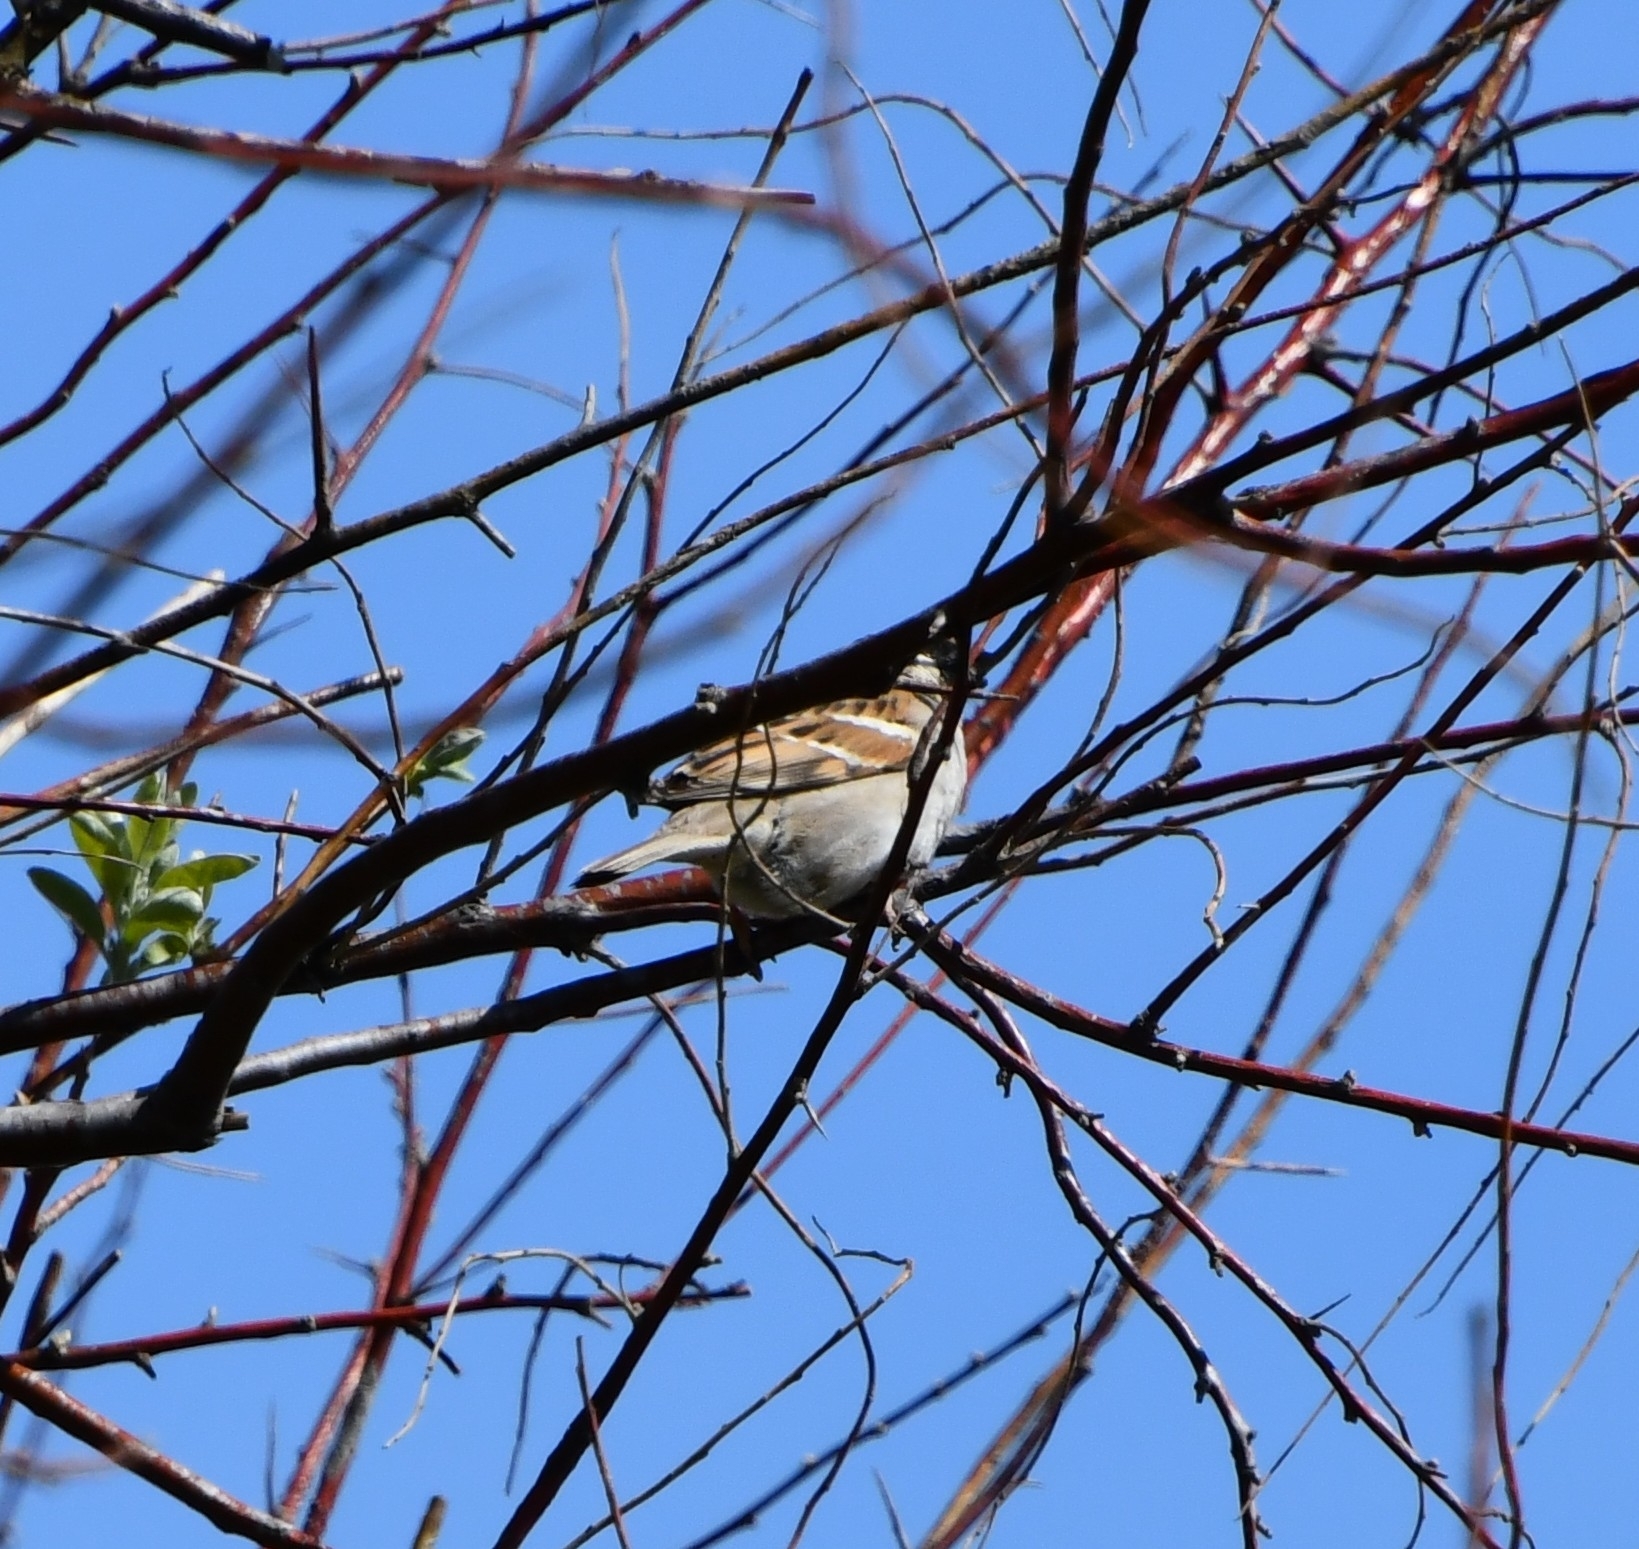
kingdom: Animalia
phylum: Chordata
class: Aves
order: Passeriformes
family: Passeridae
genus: Passer
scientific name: Passer montanus
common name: Eurasian tree sparrow
